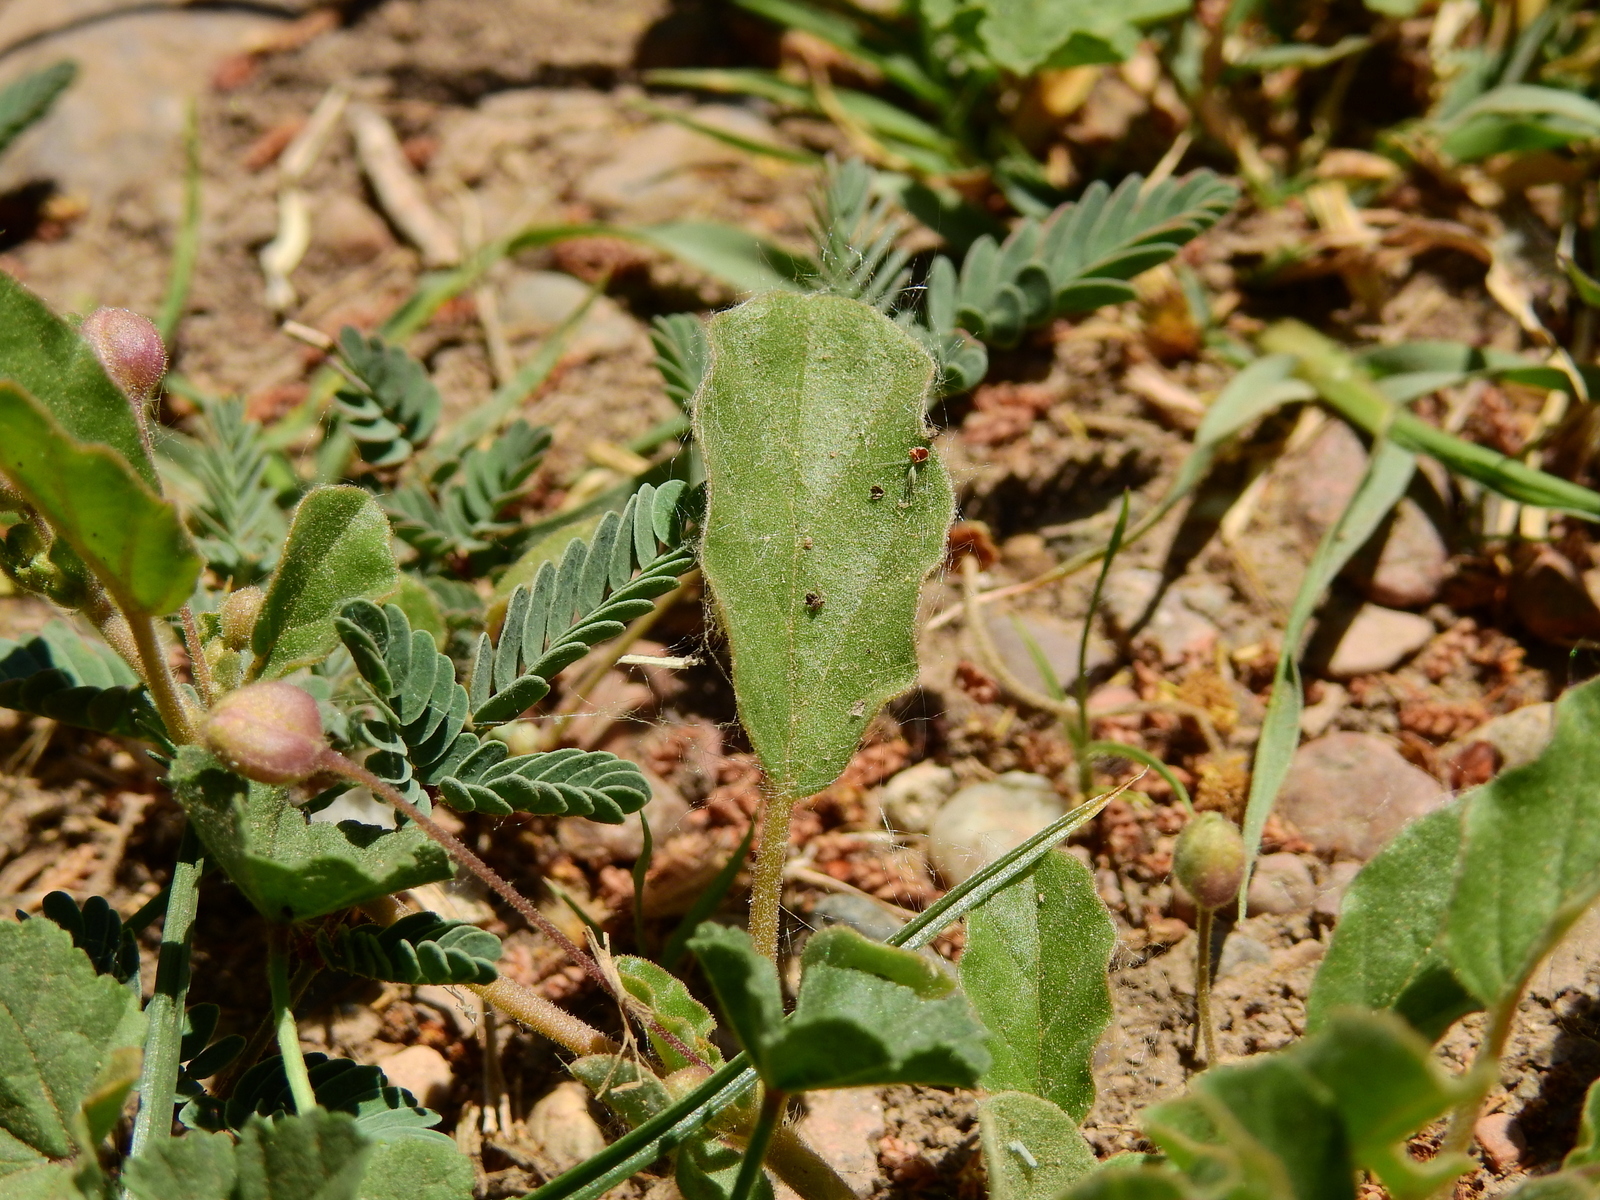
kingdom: Plantae
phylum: Tracheophyta
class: Magnoliopsida
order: Caryophyllales
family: Nyctaginaceae
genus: Allionia
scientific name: Allionia incarnata
